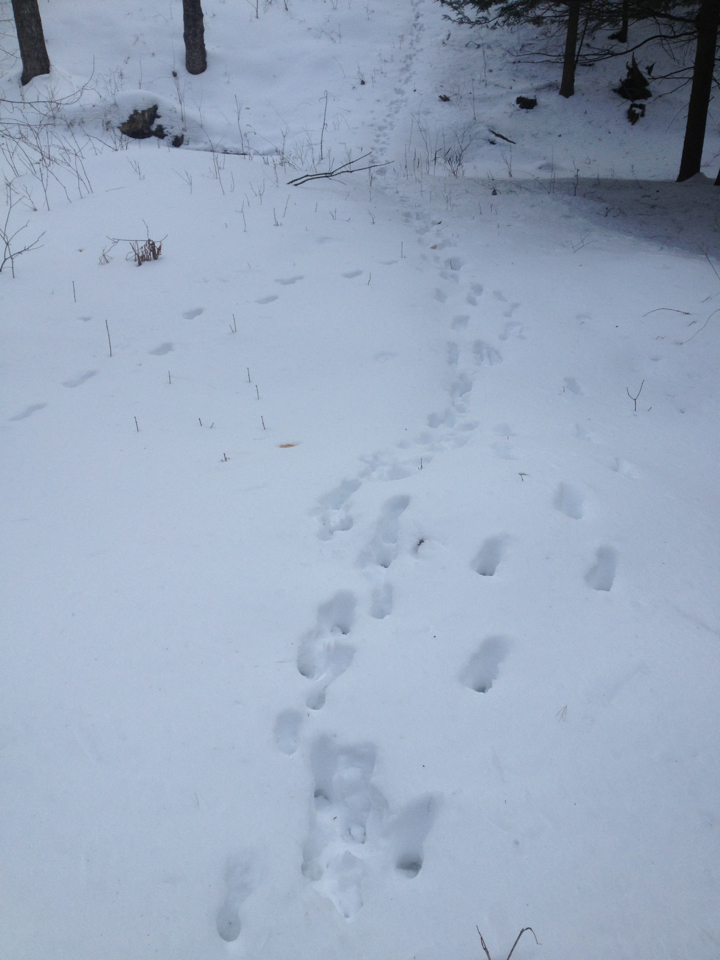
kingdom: Animalia
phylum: Chordata
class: Mammalia
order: Artiodactyla
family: Cervidae
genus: Odocoileus
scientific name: Odocoileus virginianus
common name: White-tailed deer
